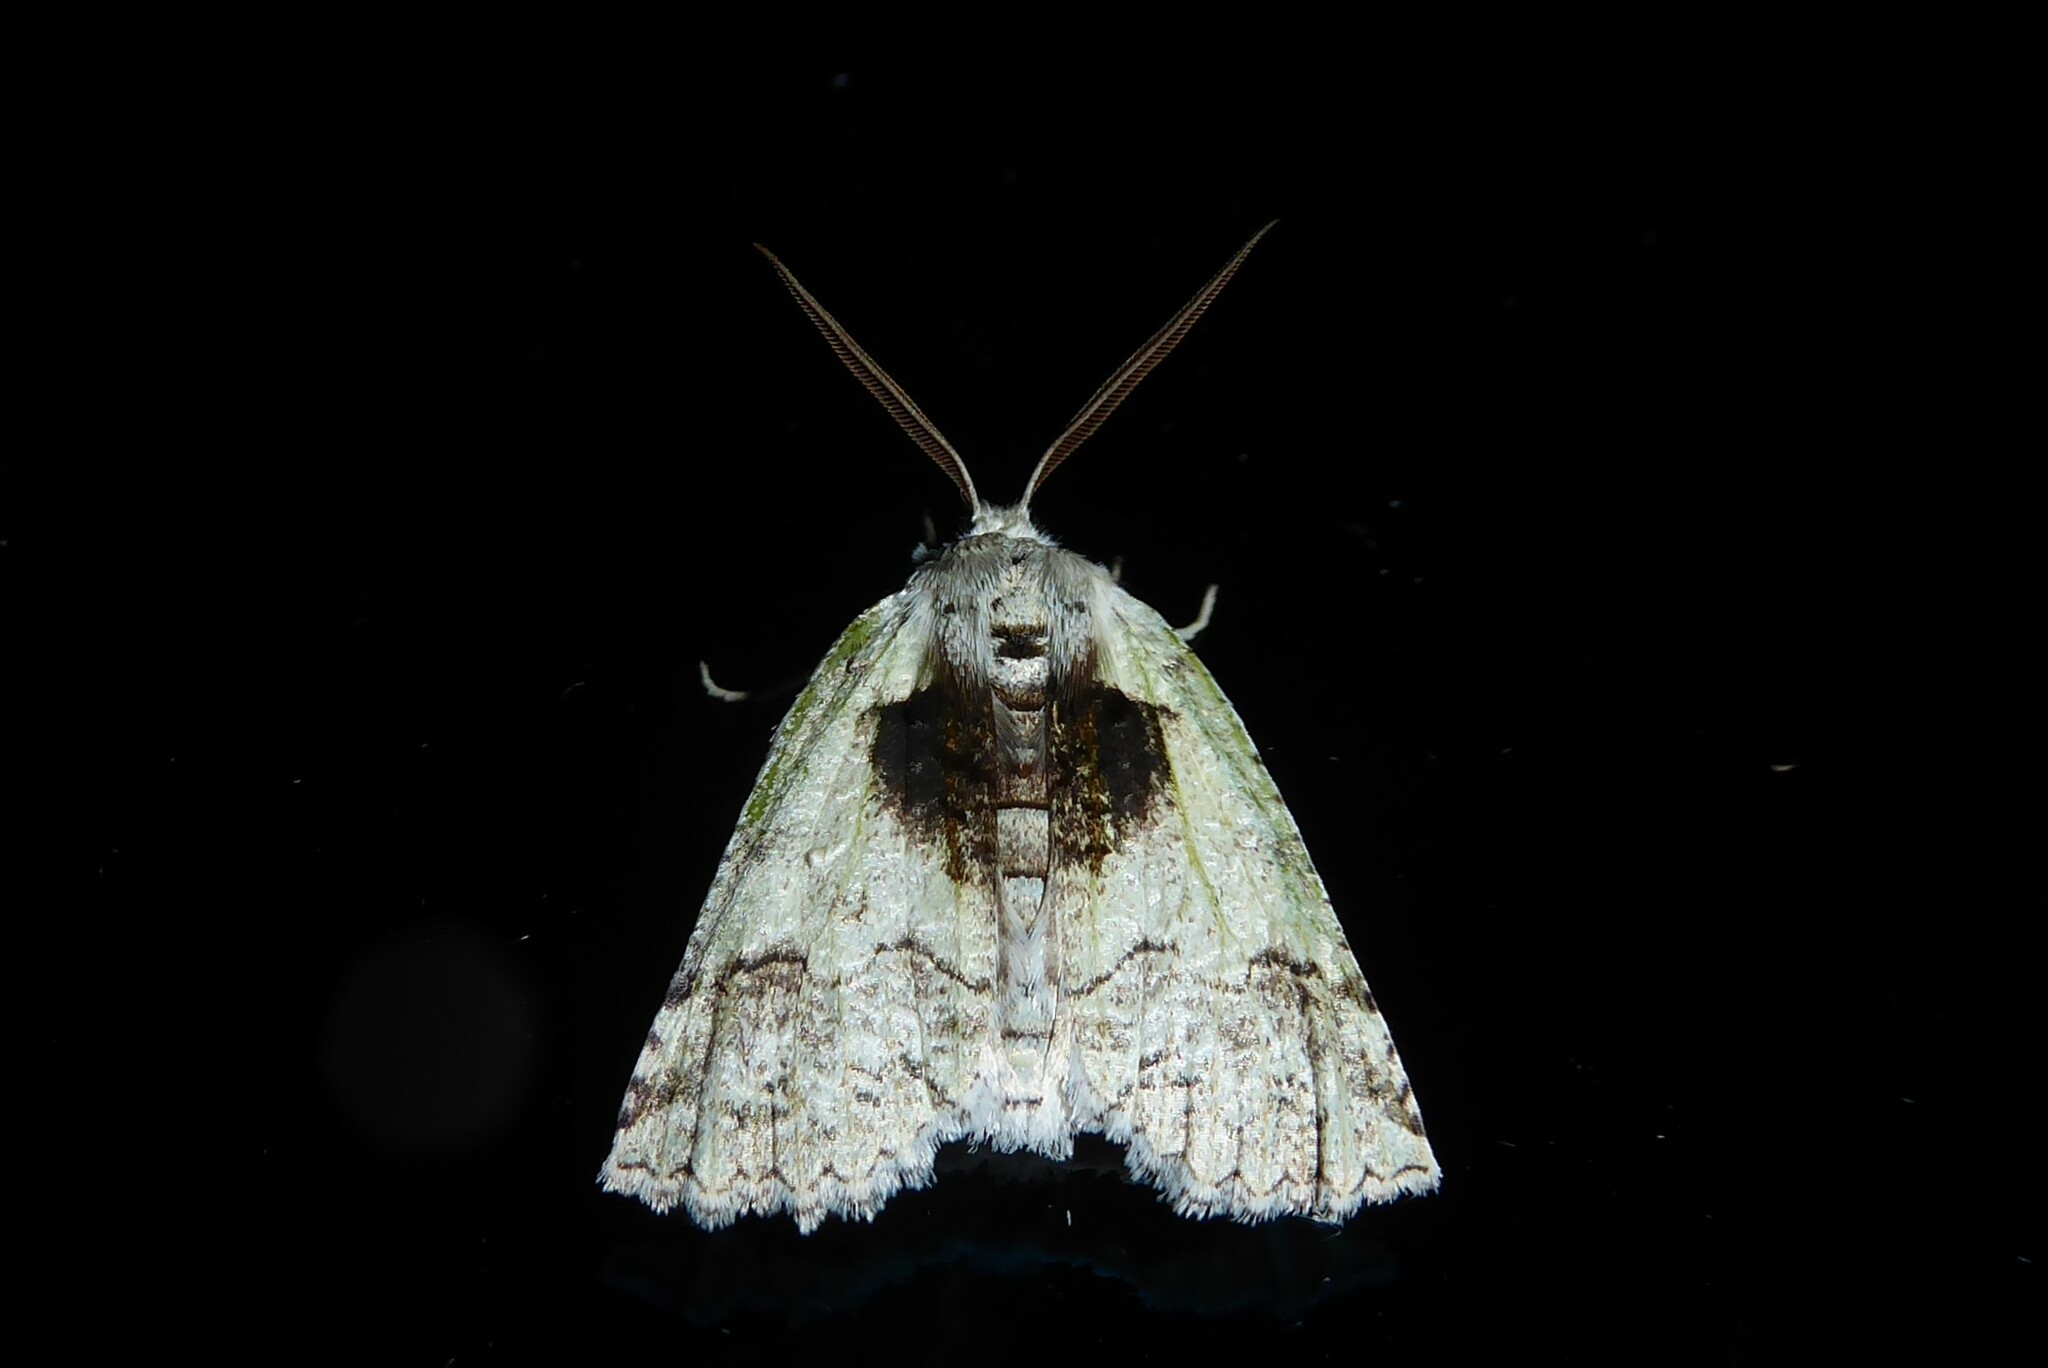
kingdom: Animalia
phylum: Arthropoda
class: Insecta
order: Lepidoptera
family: Geometridae
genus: Declana
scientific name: Declana floccosa
